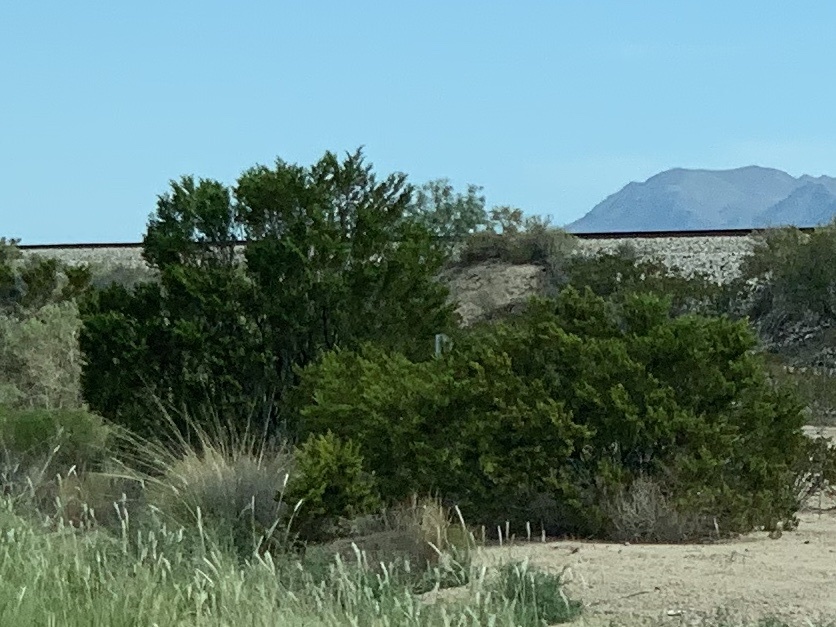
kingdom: Plantae
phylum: Tracheophyta
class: Magnoliopsida
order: Zygophyllales
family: Zygophyllaceae
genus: Larrea
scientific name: Larrea tridentata
